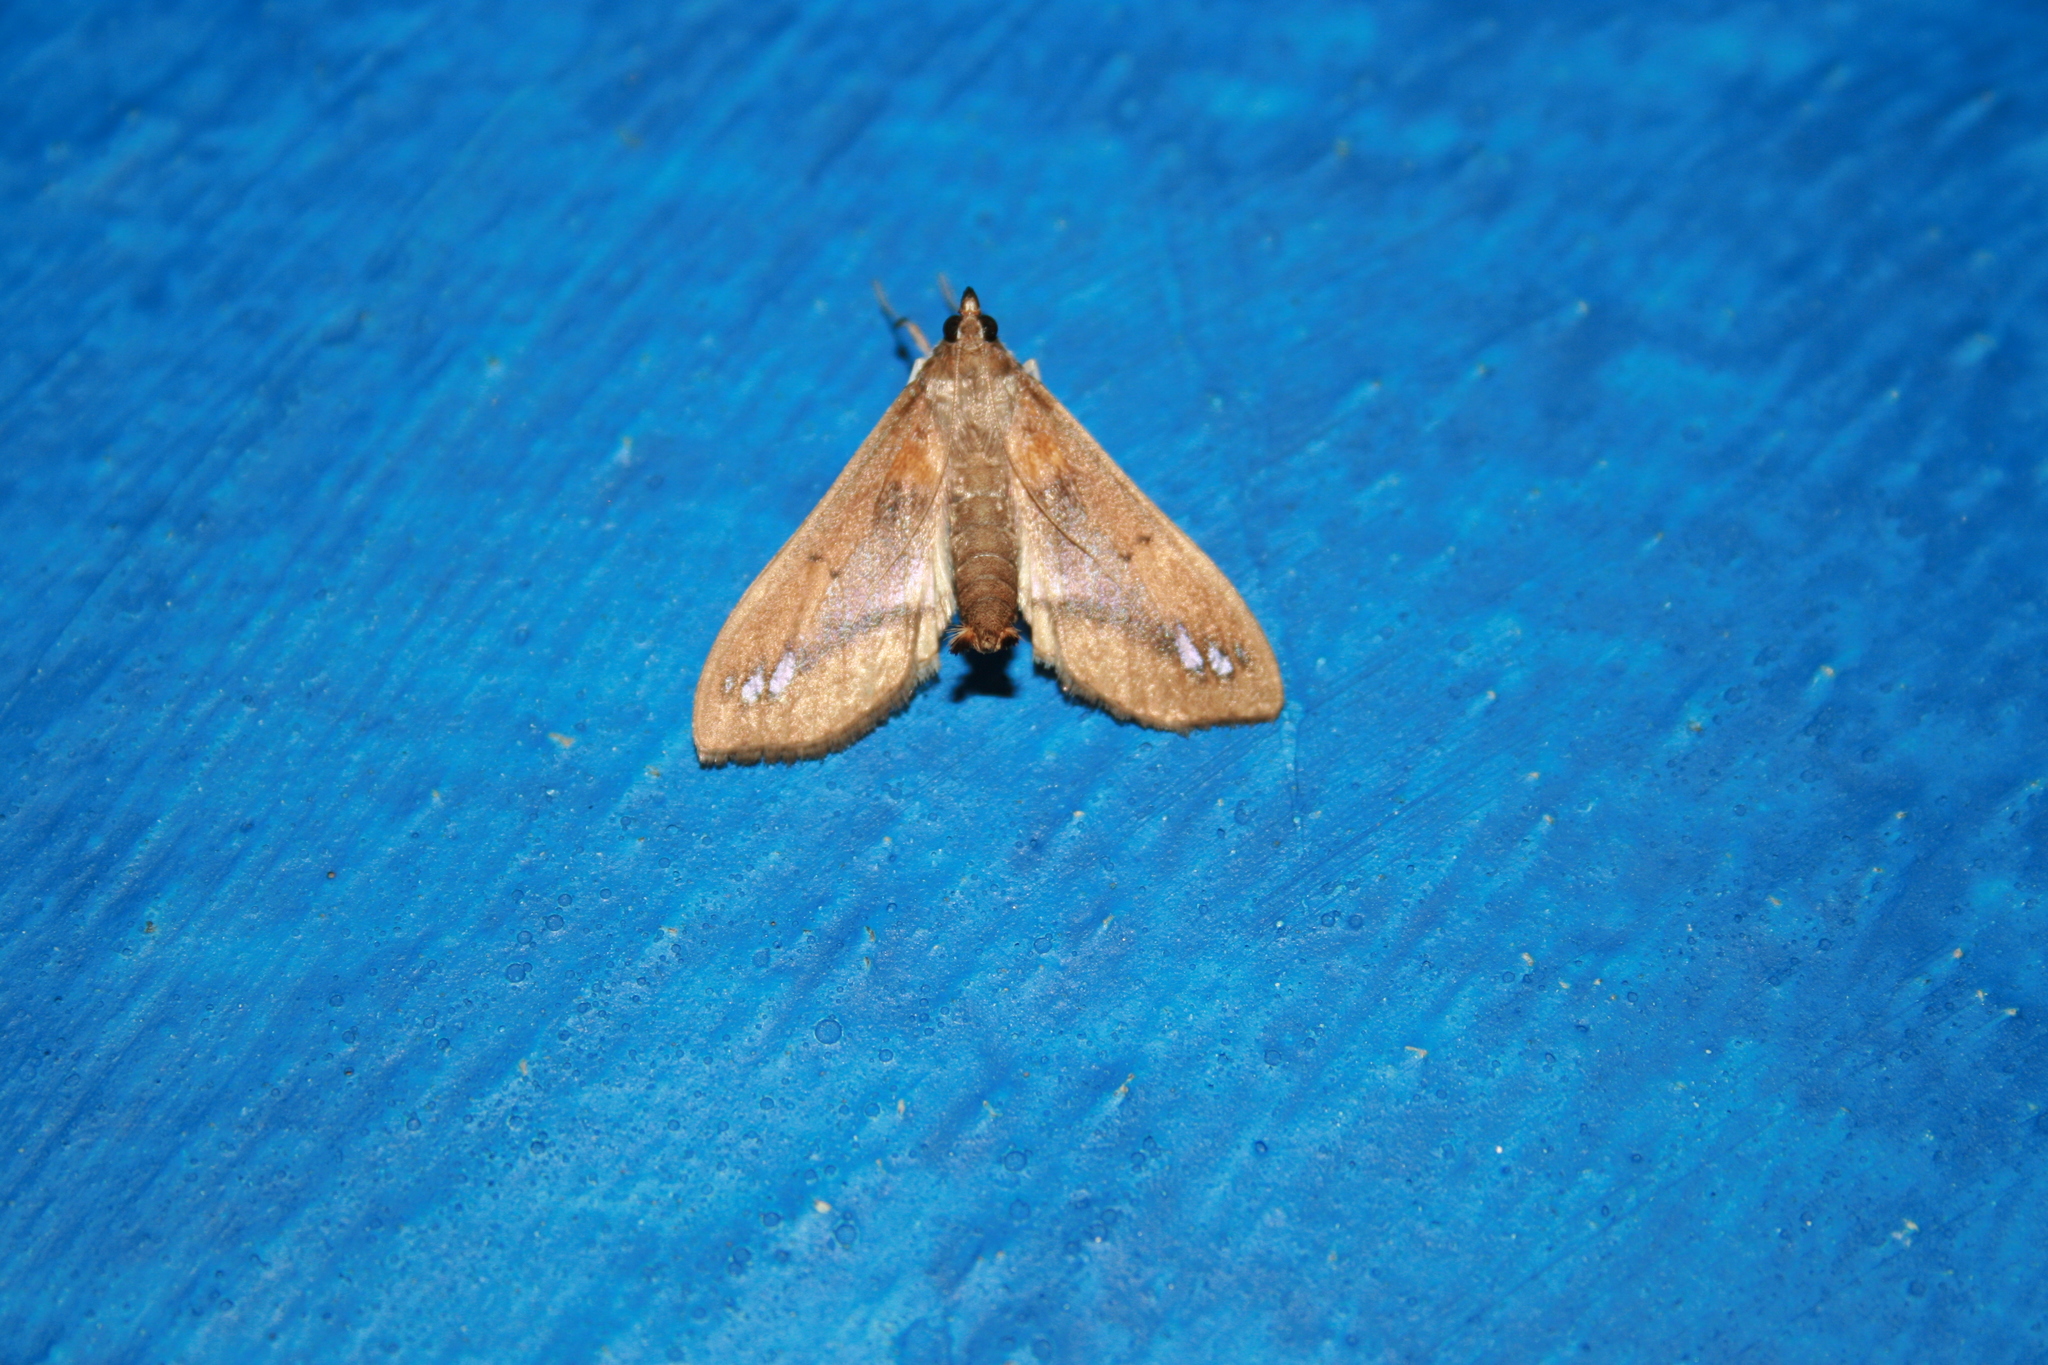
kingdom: Animalia
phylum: Arthropoda
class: Insecta
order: Lepidoptera
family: Crambidae
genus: Diaphania
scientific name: Diaphania
